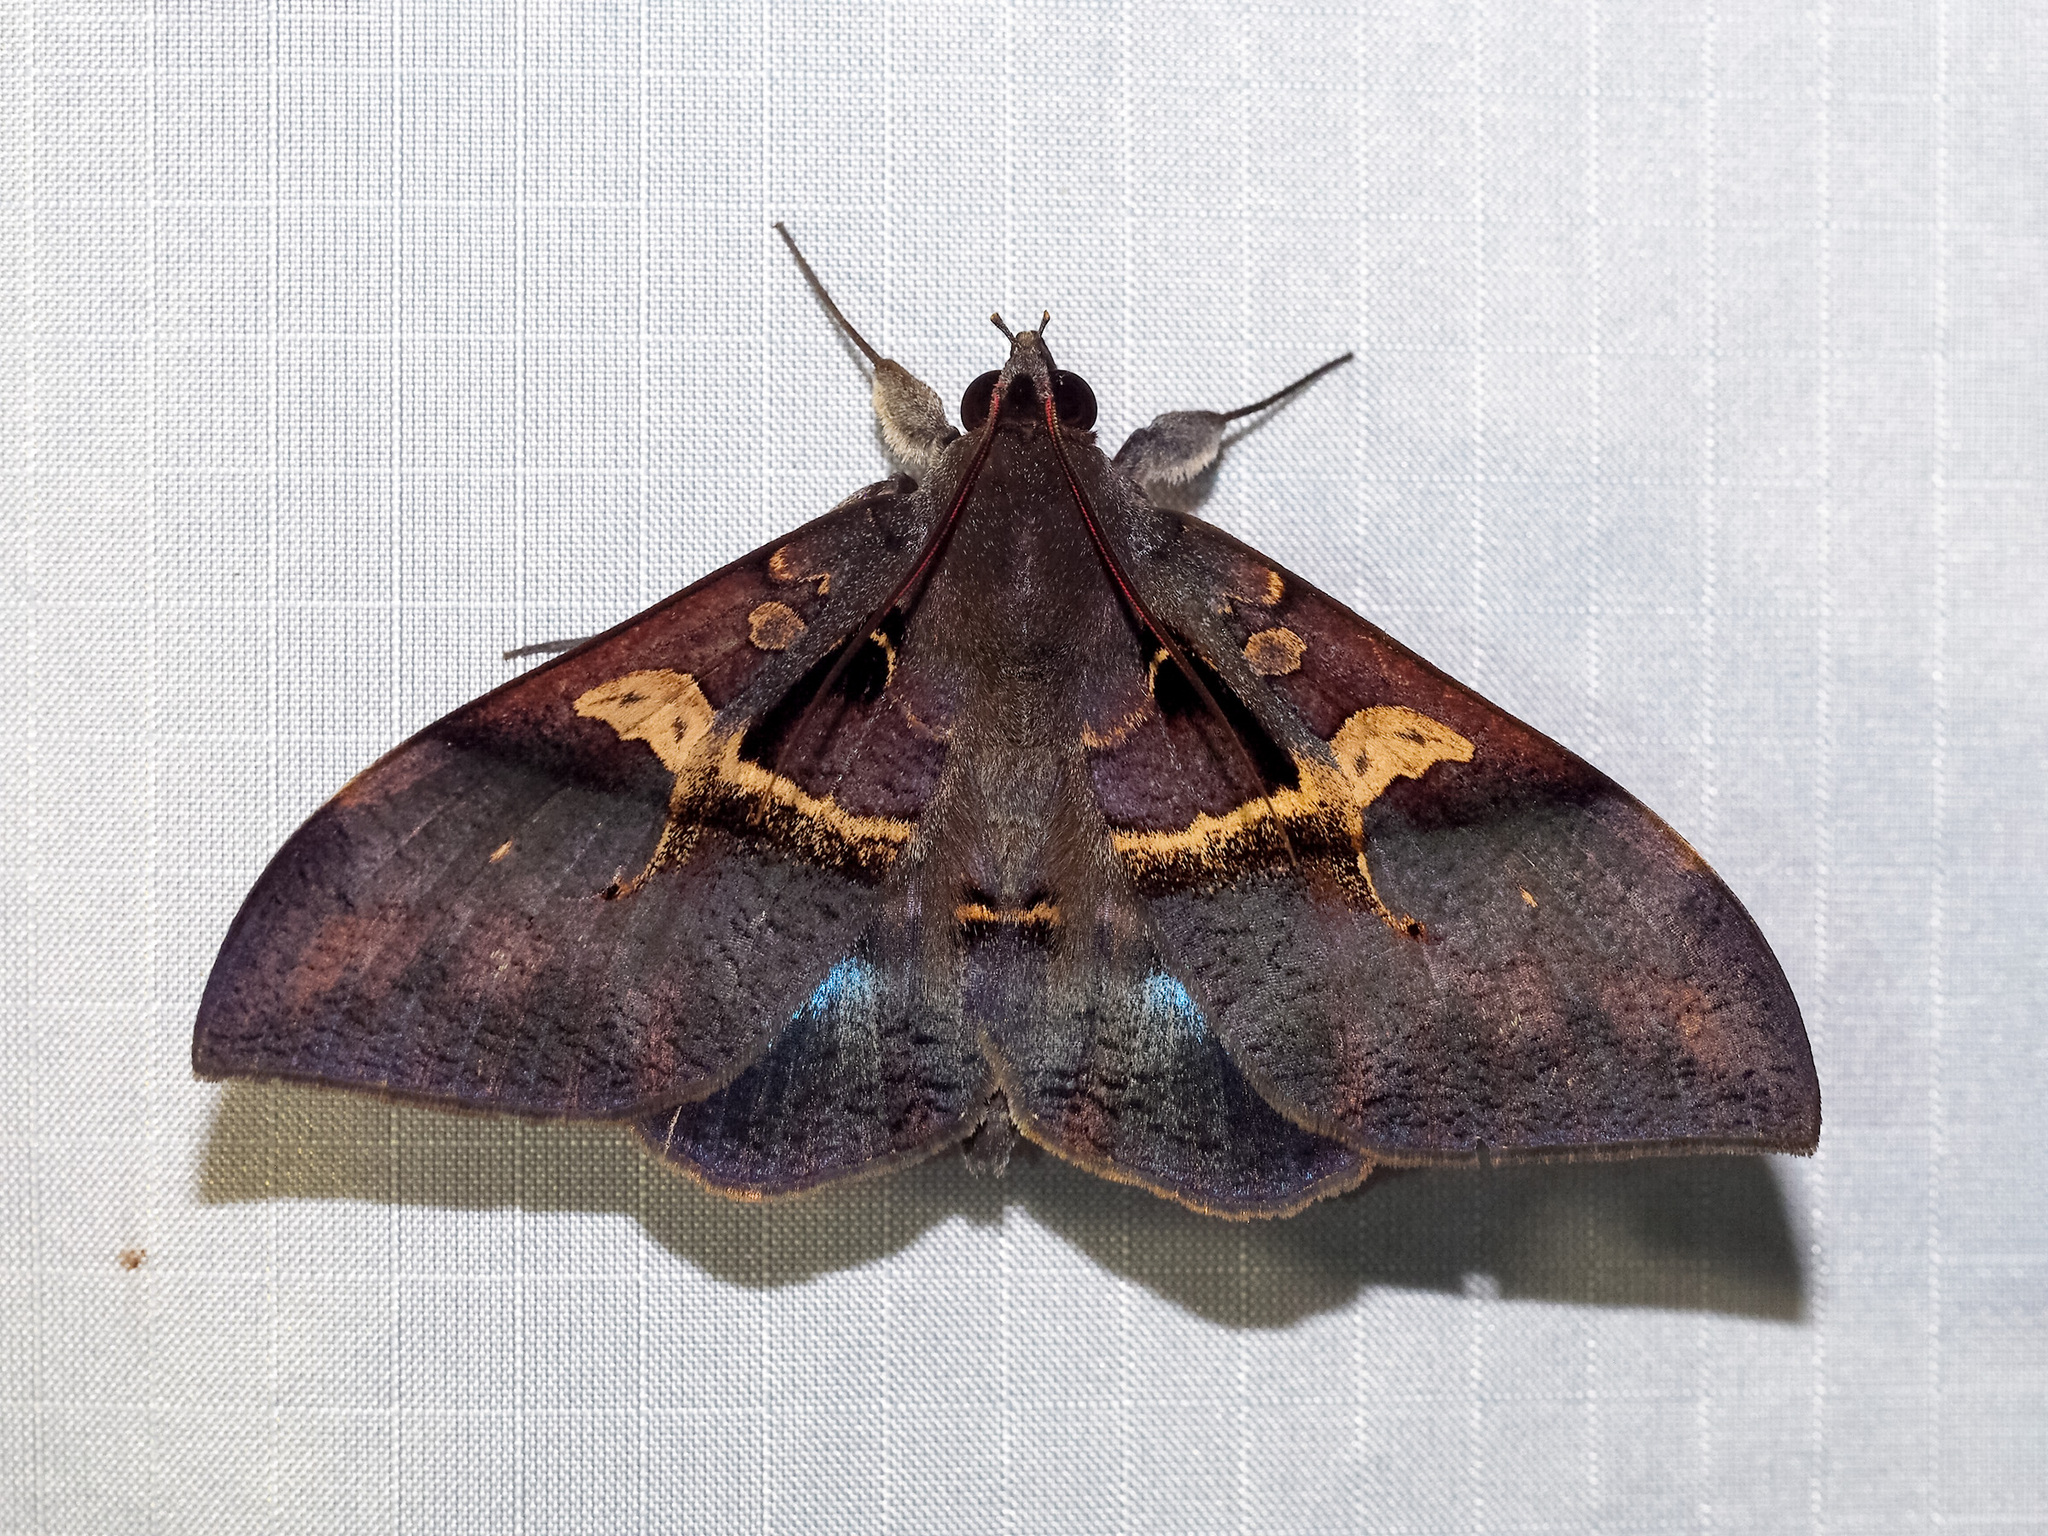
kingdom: Animalia
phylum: Arthropoda
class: Insecta
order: Lepidoptera
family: Erebidae
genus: Ischyja
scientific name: Ischyja manlioides
